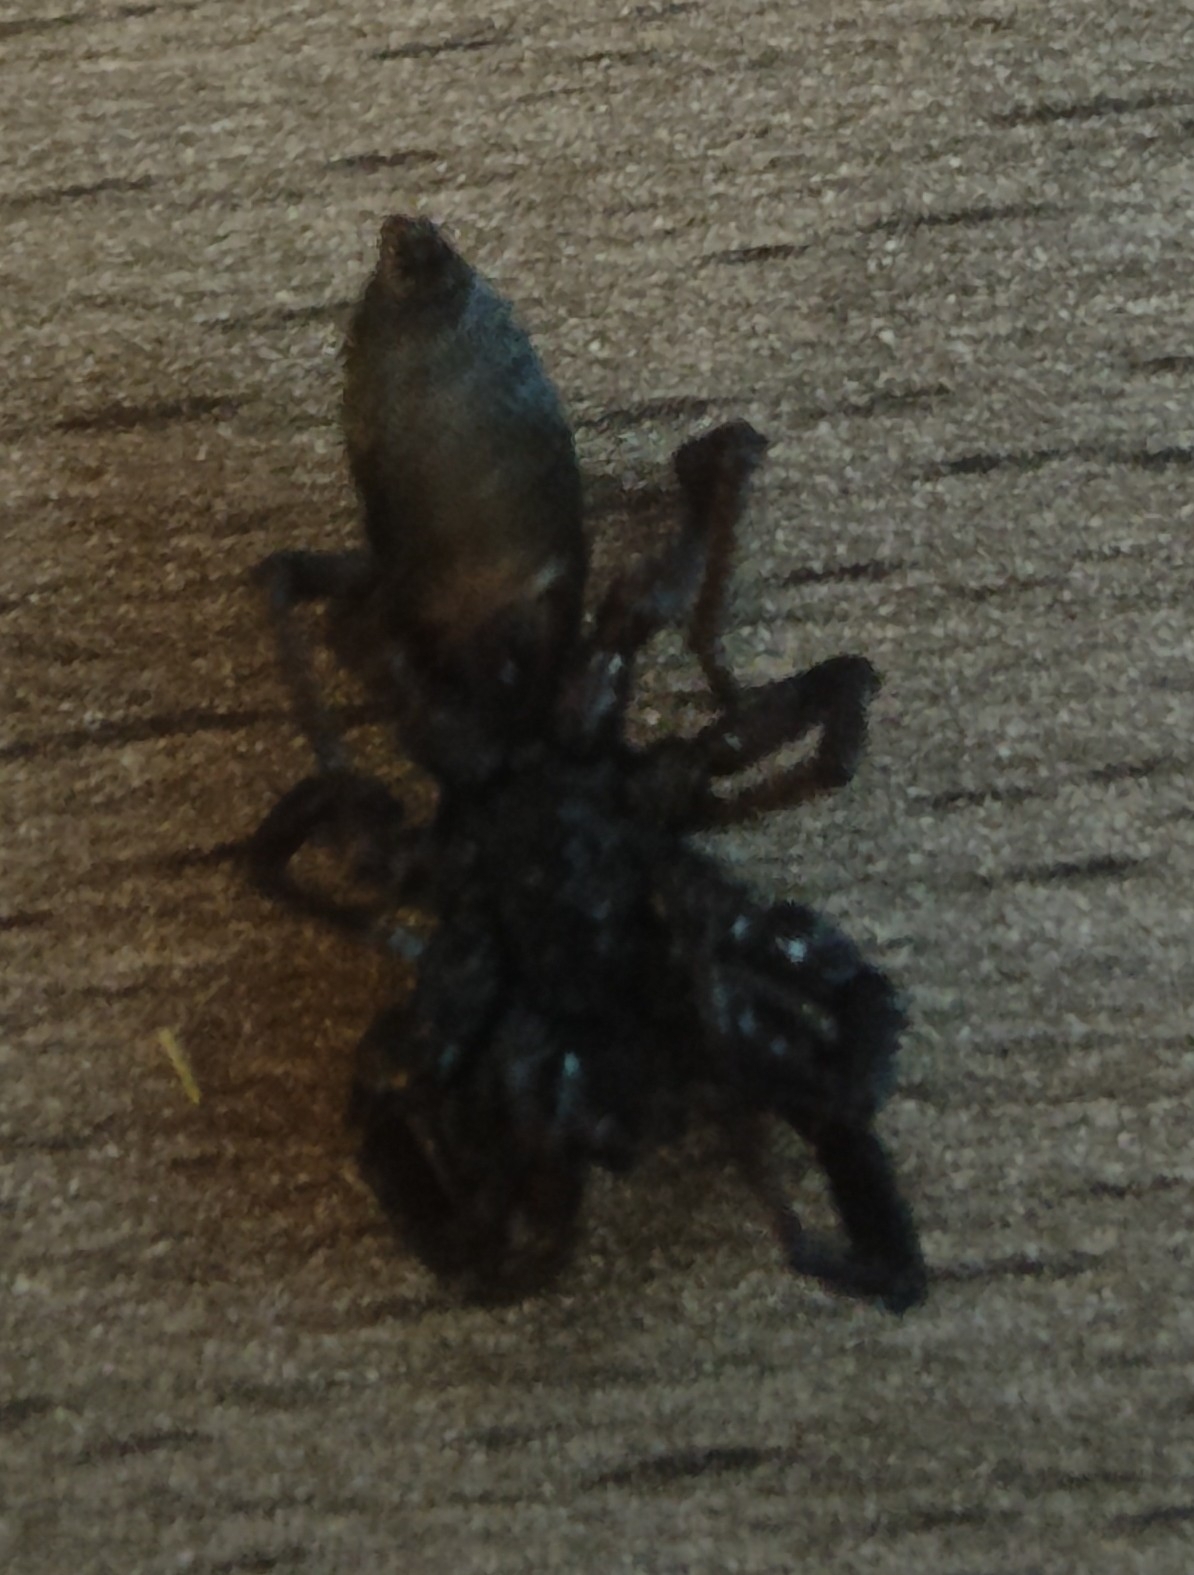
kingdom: Animalia
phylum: Arthropoda
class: Arachnida
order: Araneae
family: Lamponidae
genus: Lampona
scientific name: Lampona cylindrata
